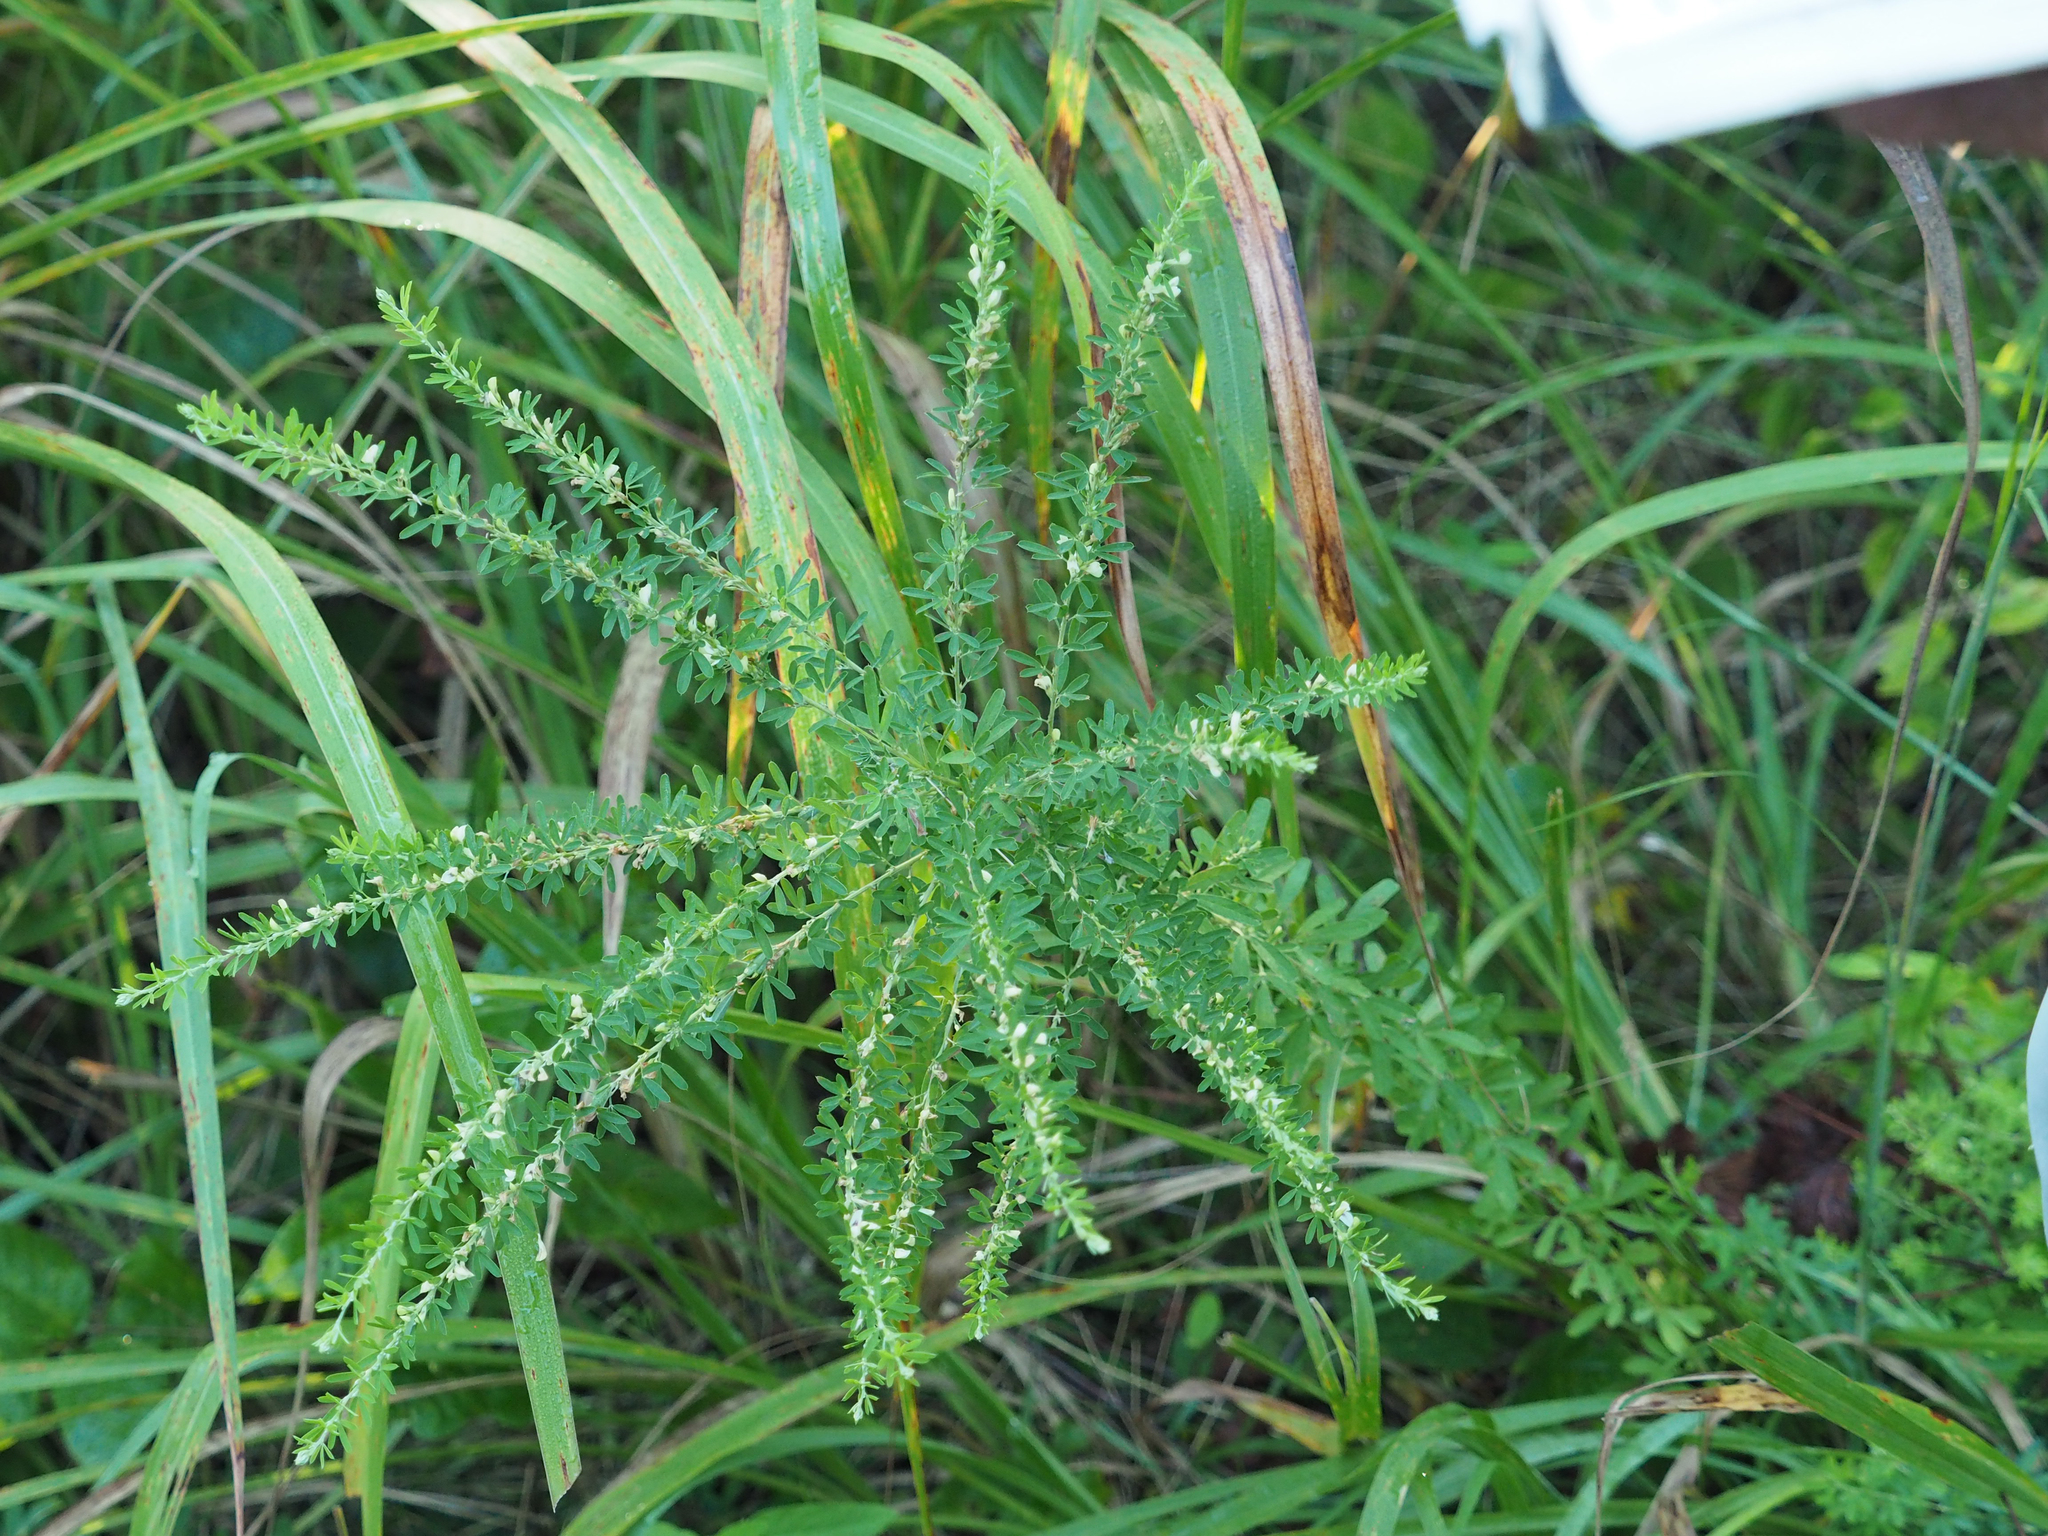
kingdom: Plantae
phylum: Tracheophyta
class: Magnoliopsida
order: Fabales
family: Fabaceae
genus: Lespedeza
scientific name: Lespedeza cuneata
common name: Chinese bush-clover
